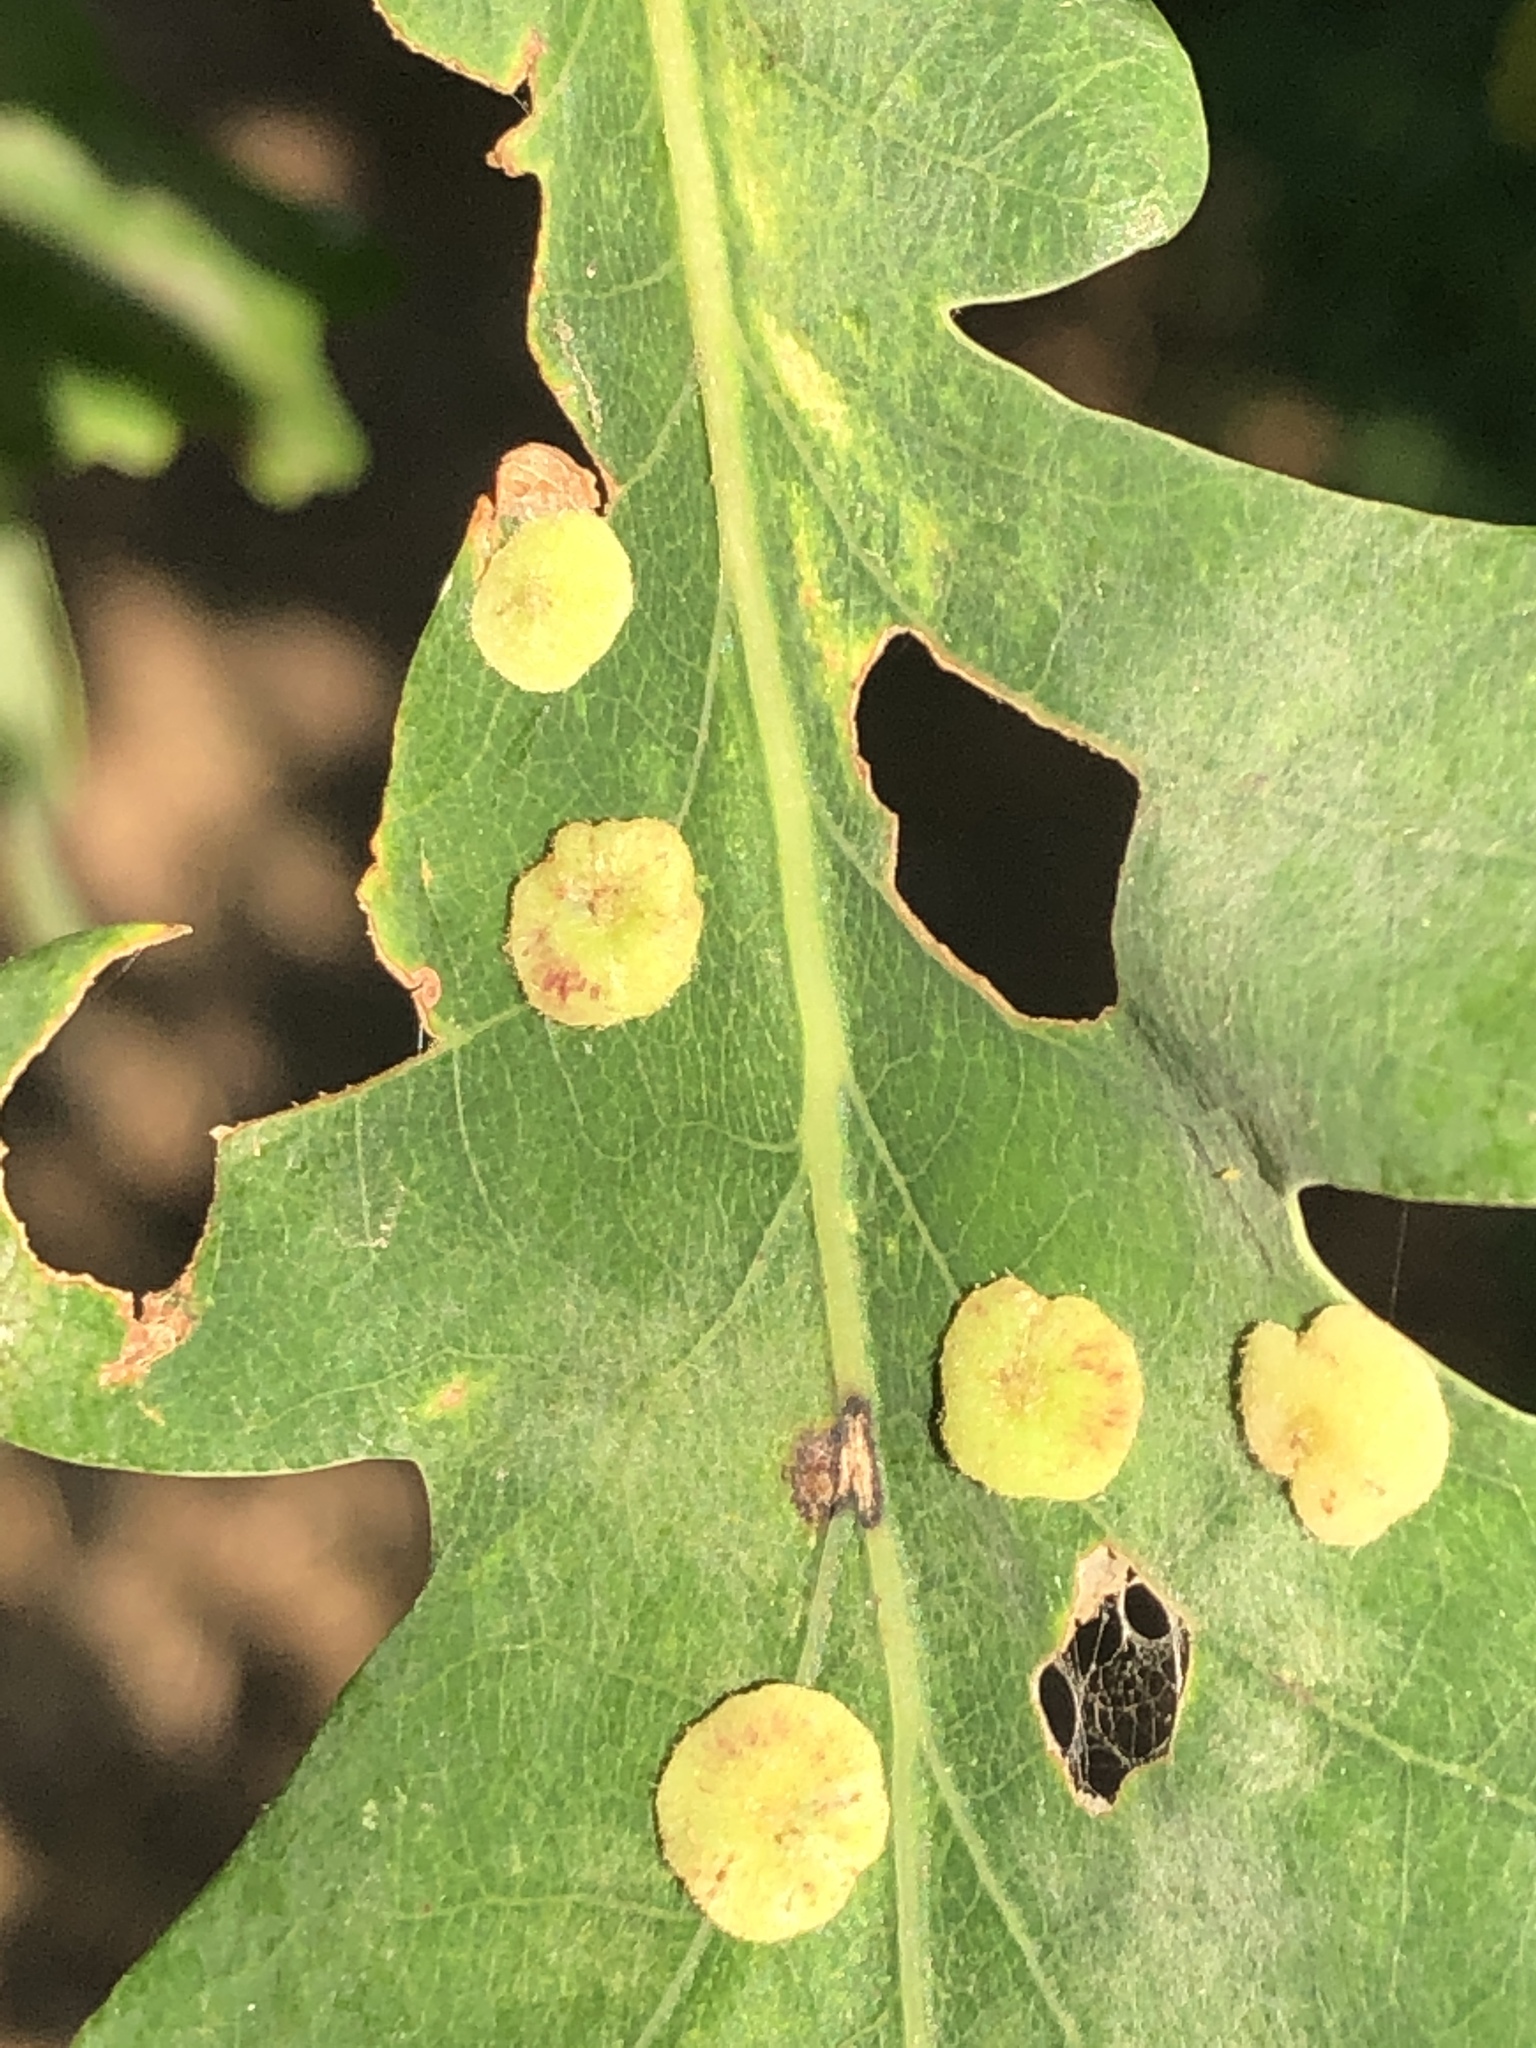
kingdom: Animalia
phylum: Arthropoda
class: Insecta
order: Hymenoptera
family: Cynipidae
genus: Neuroterus
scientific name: Neuroterus quercusbaccarum
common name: Common spangle gall
